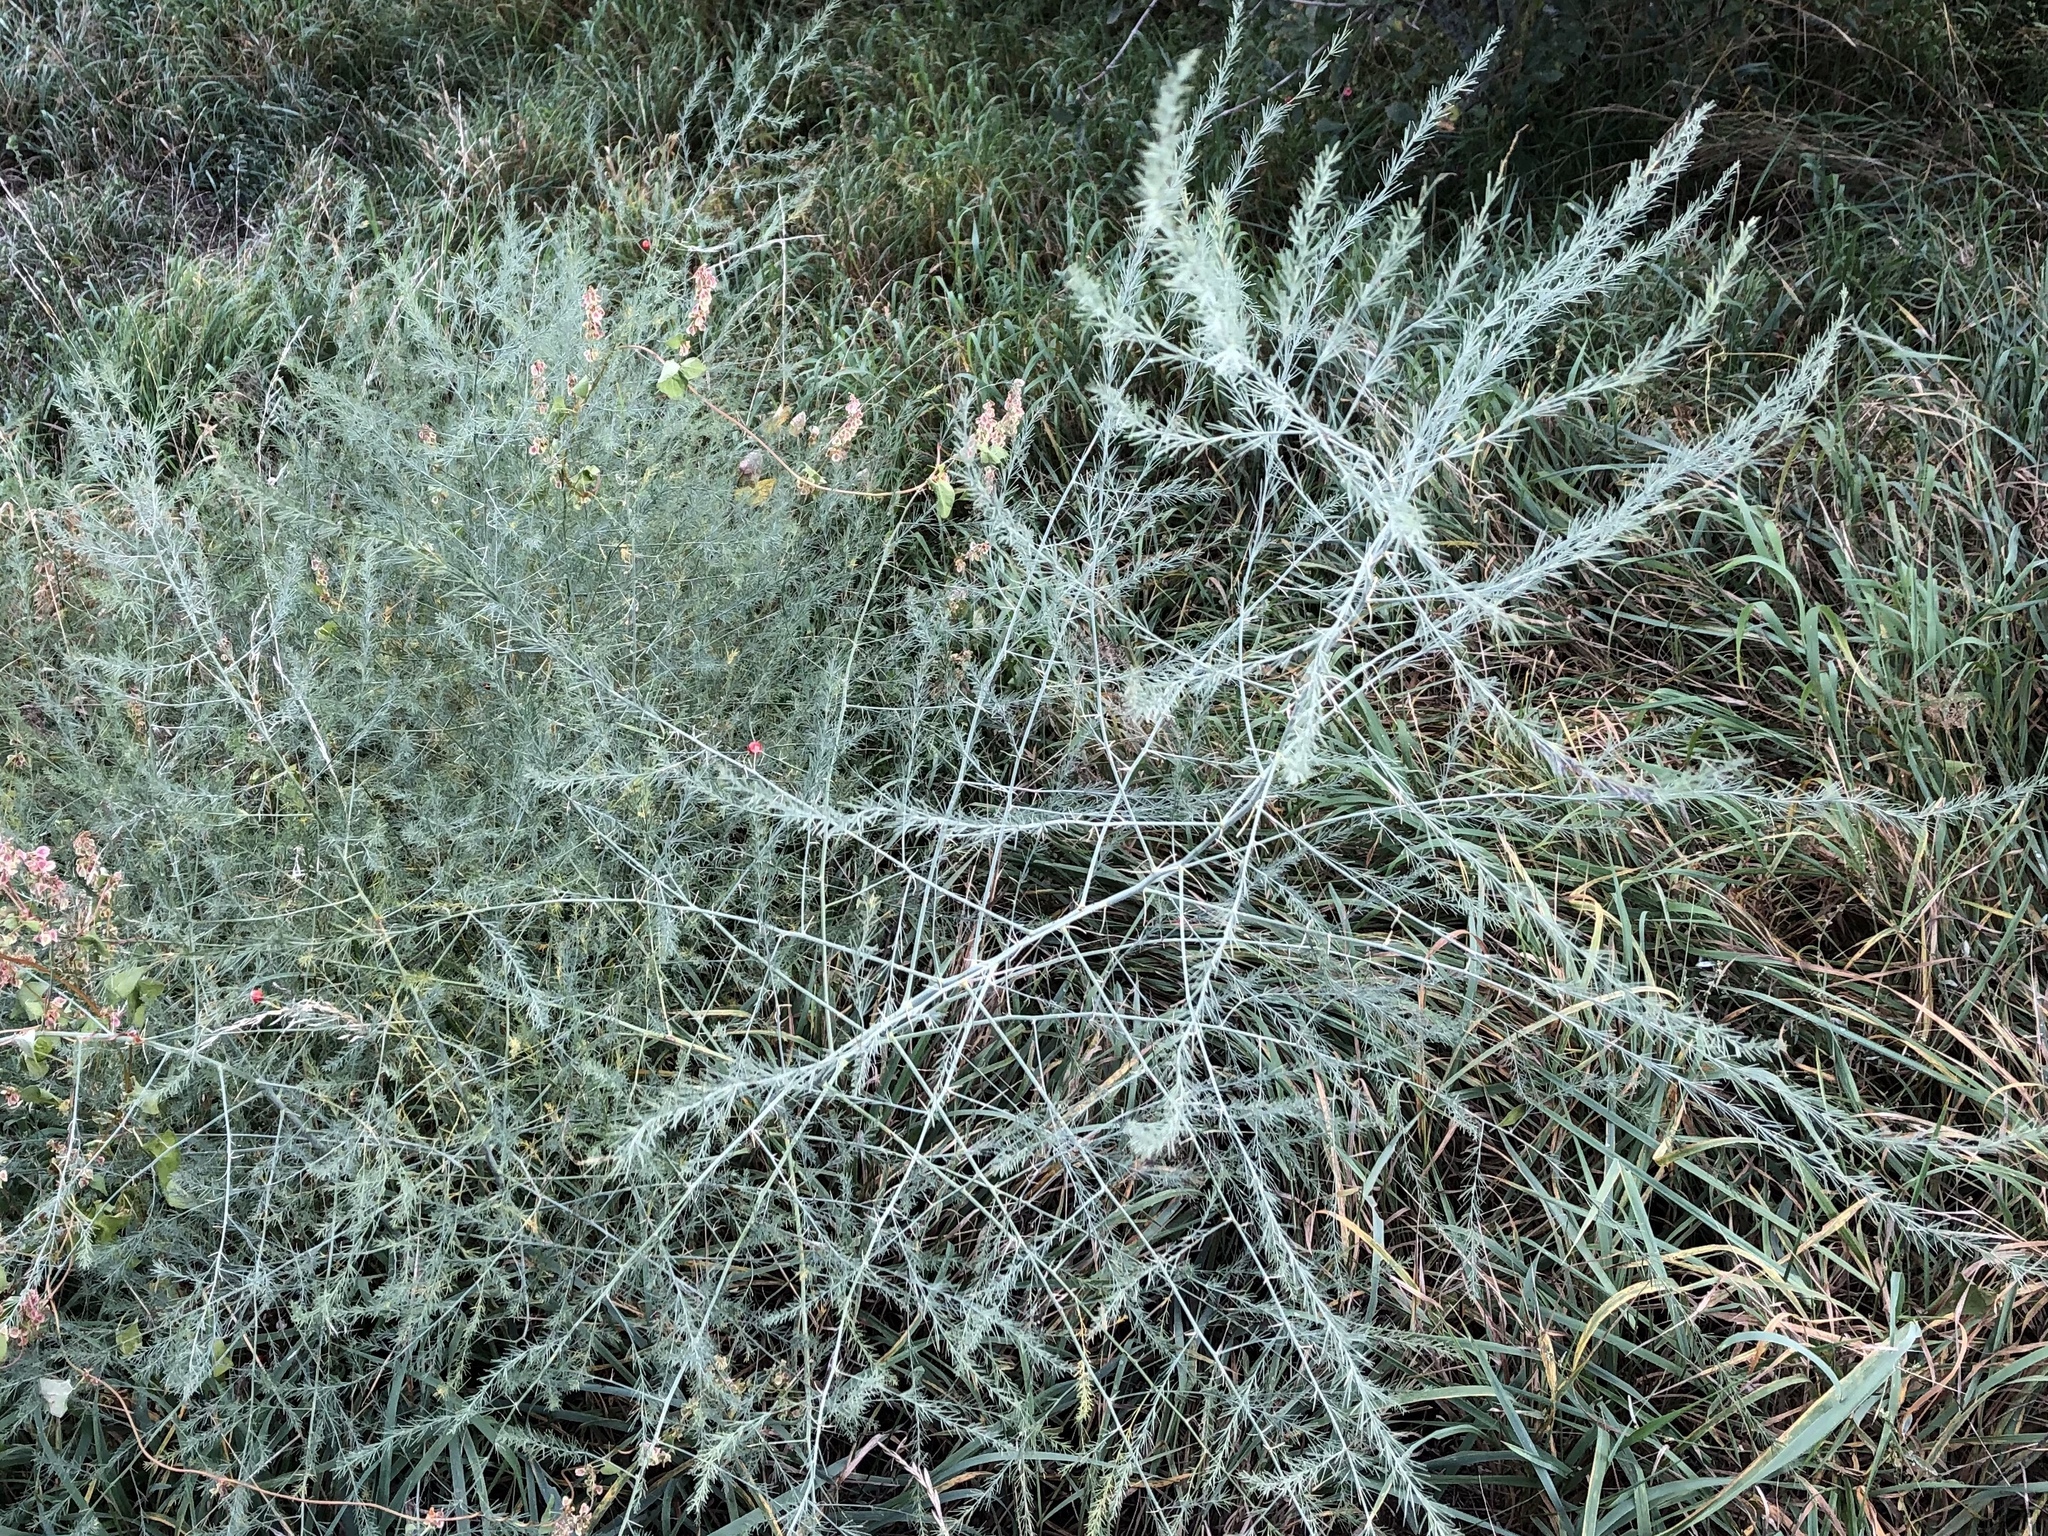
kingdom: Plantae
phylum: Tracheophyta
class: Liliopsida
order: Asparagales
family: Asparagaceae
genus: Asparagus
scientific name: Asparagus officinalis
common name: Garden asparagus
